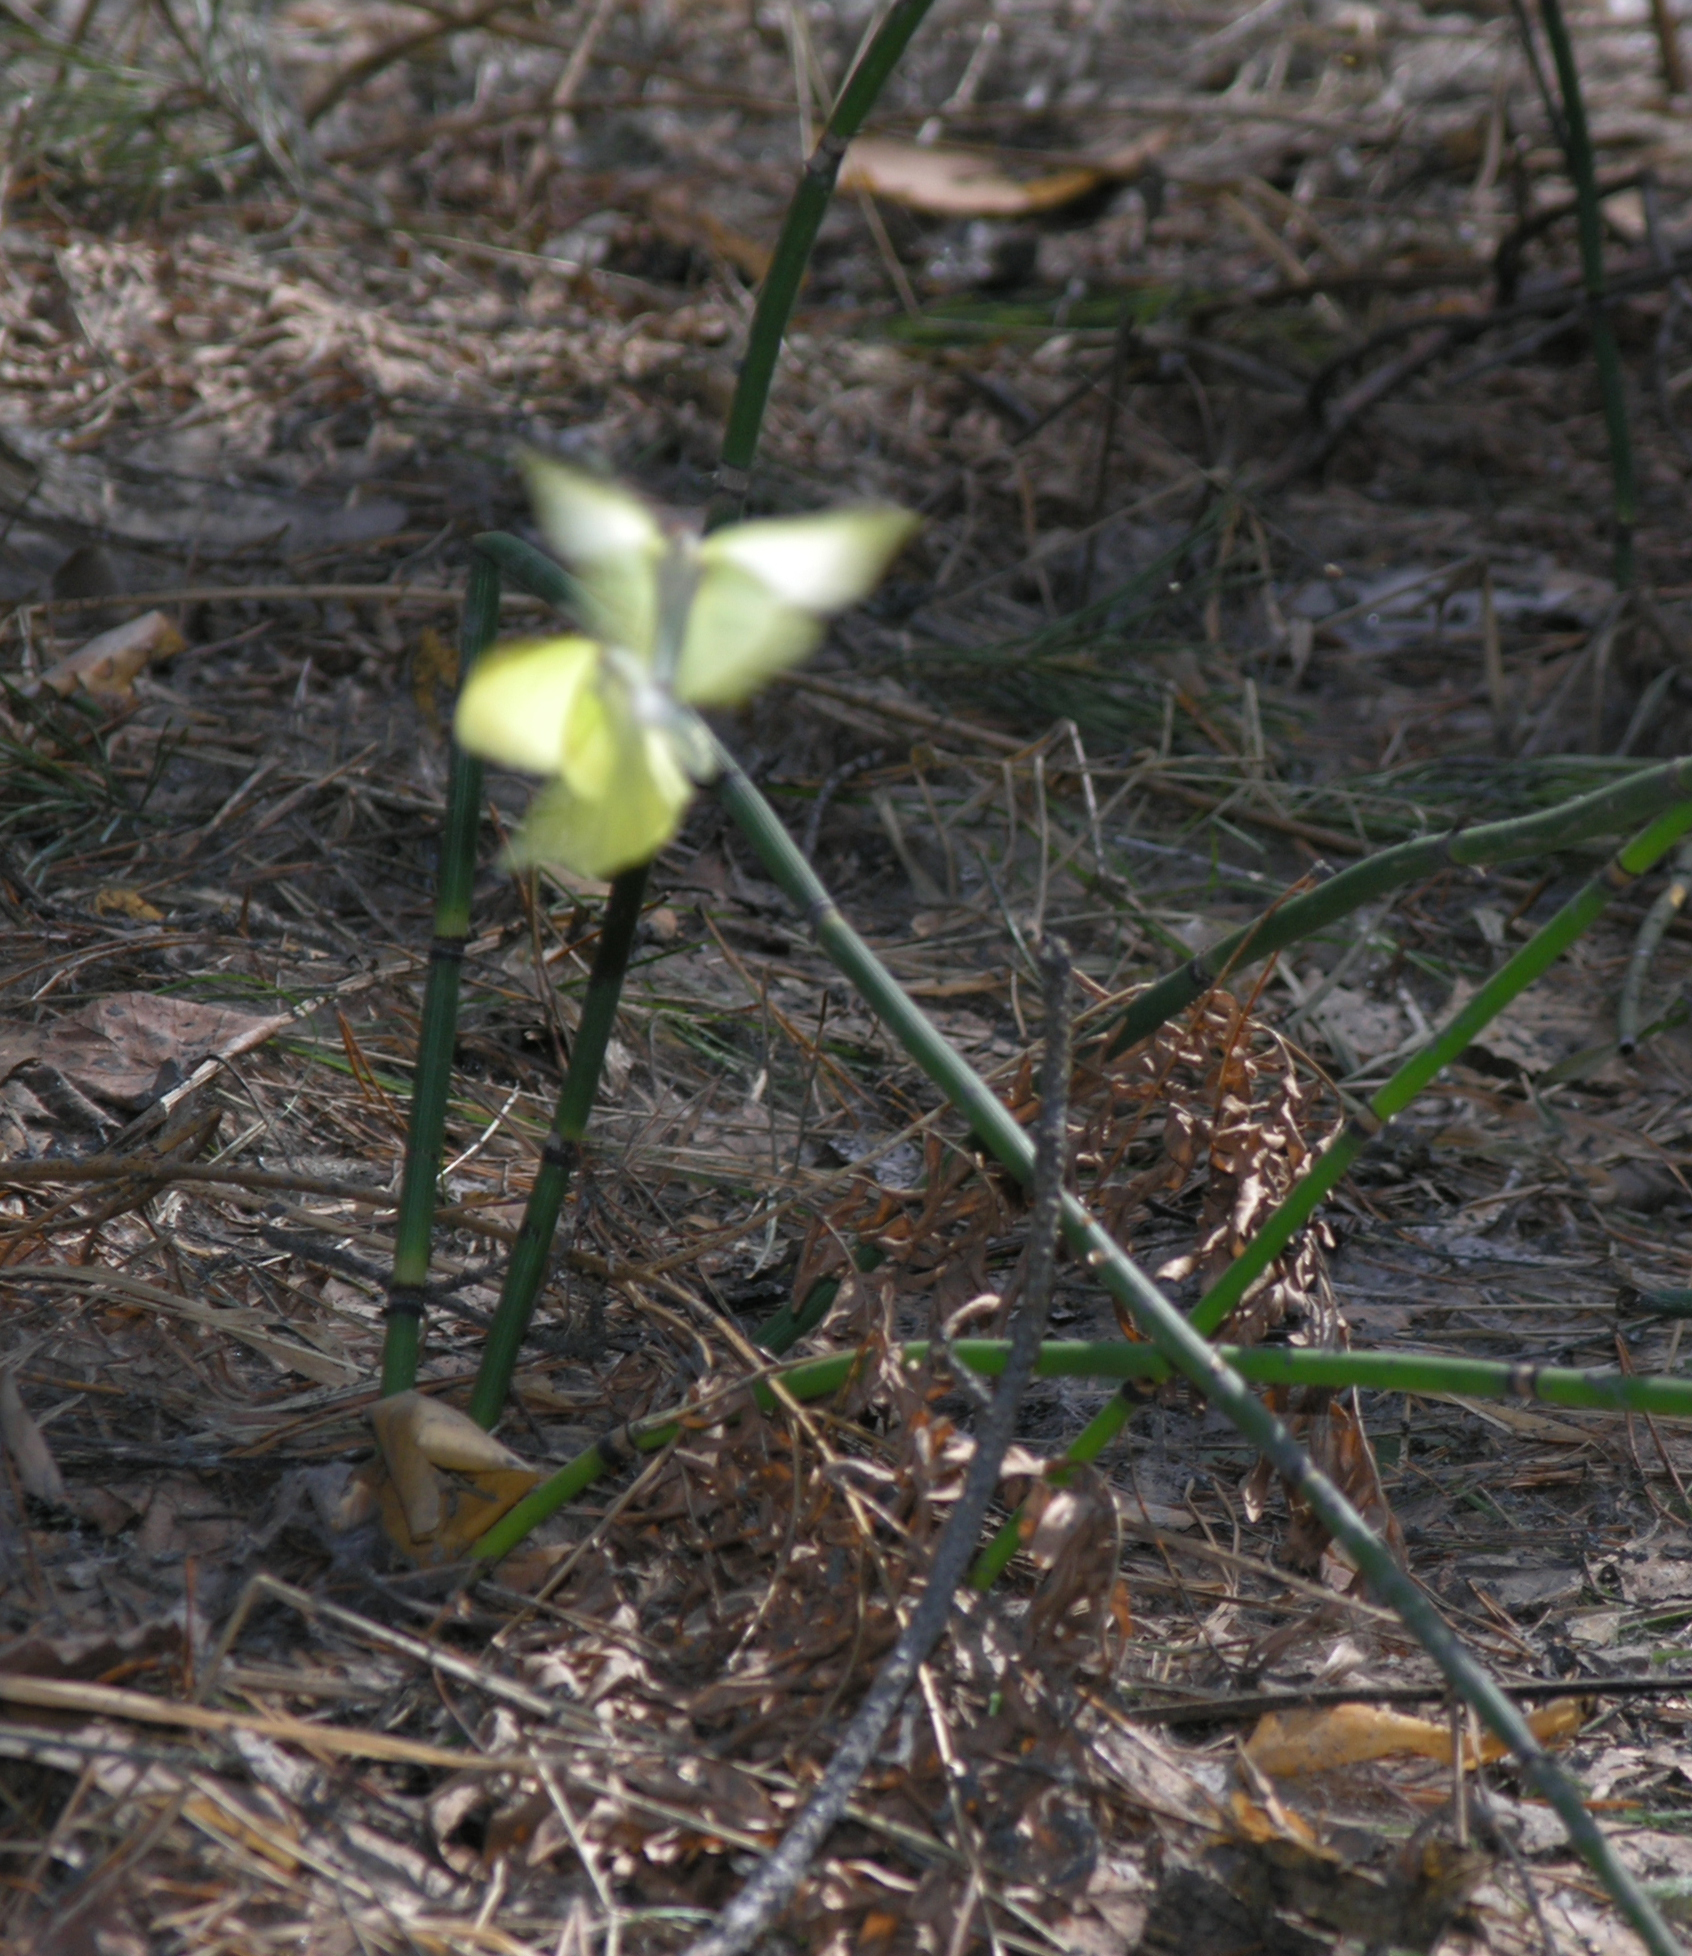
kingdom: Animalia
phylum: Arthropoda
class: Insecta
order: Lepidoptera
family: Pieridae
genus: Gonepteryx
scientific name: Gonepteryx rhamni
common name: Brimstone
